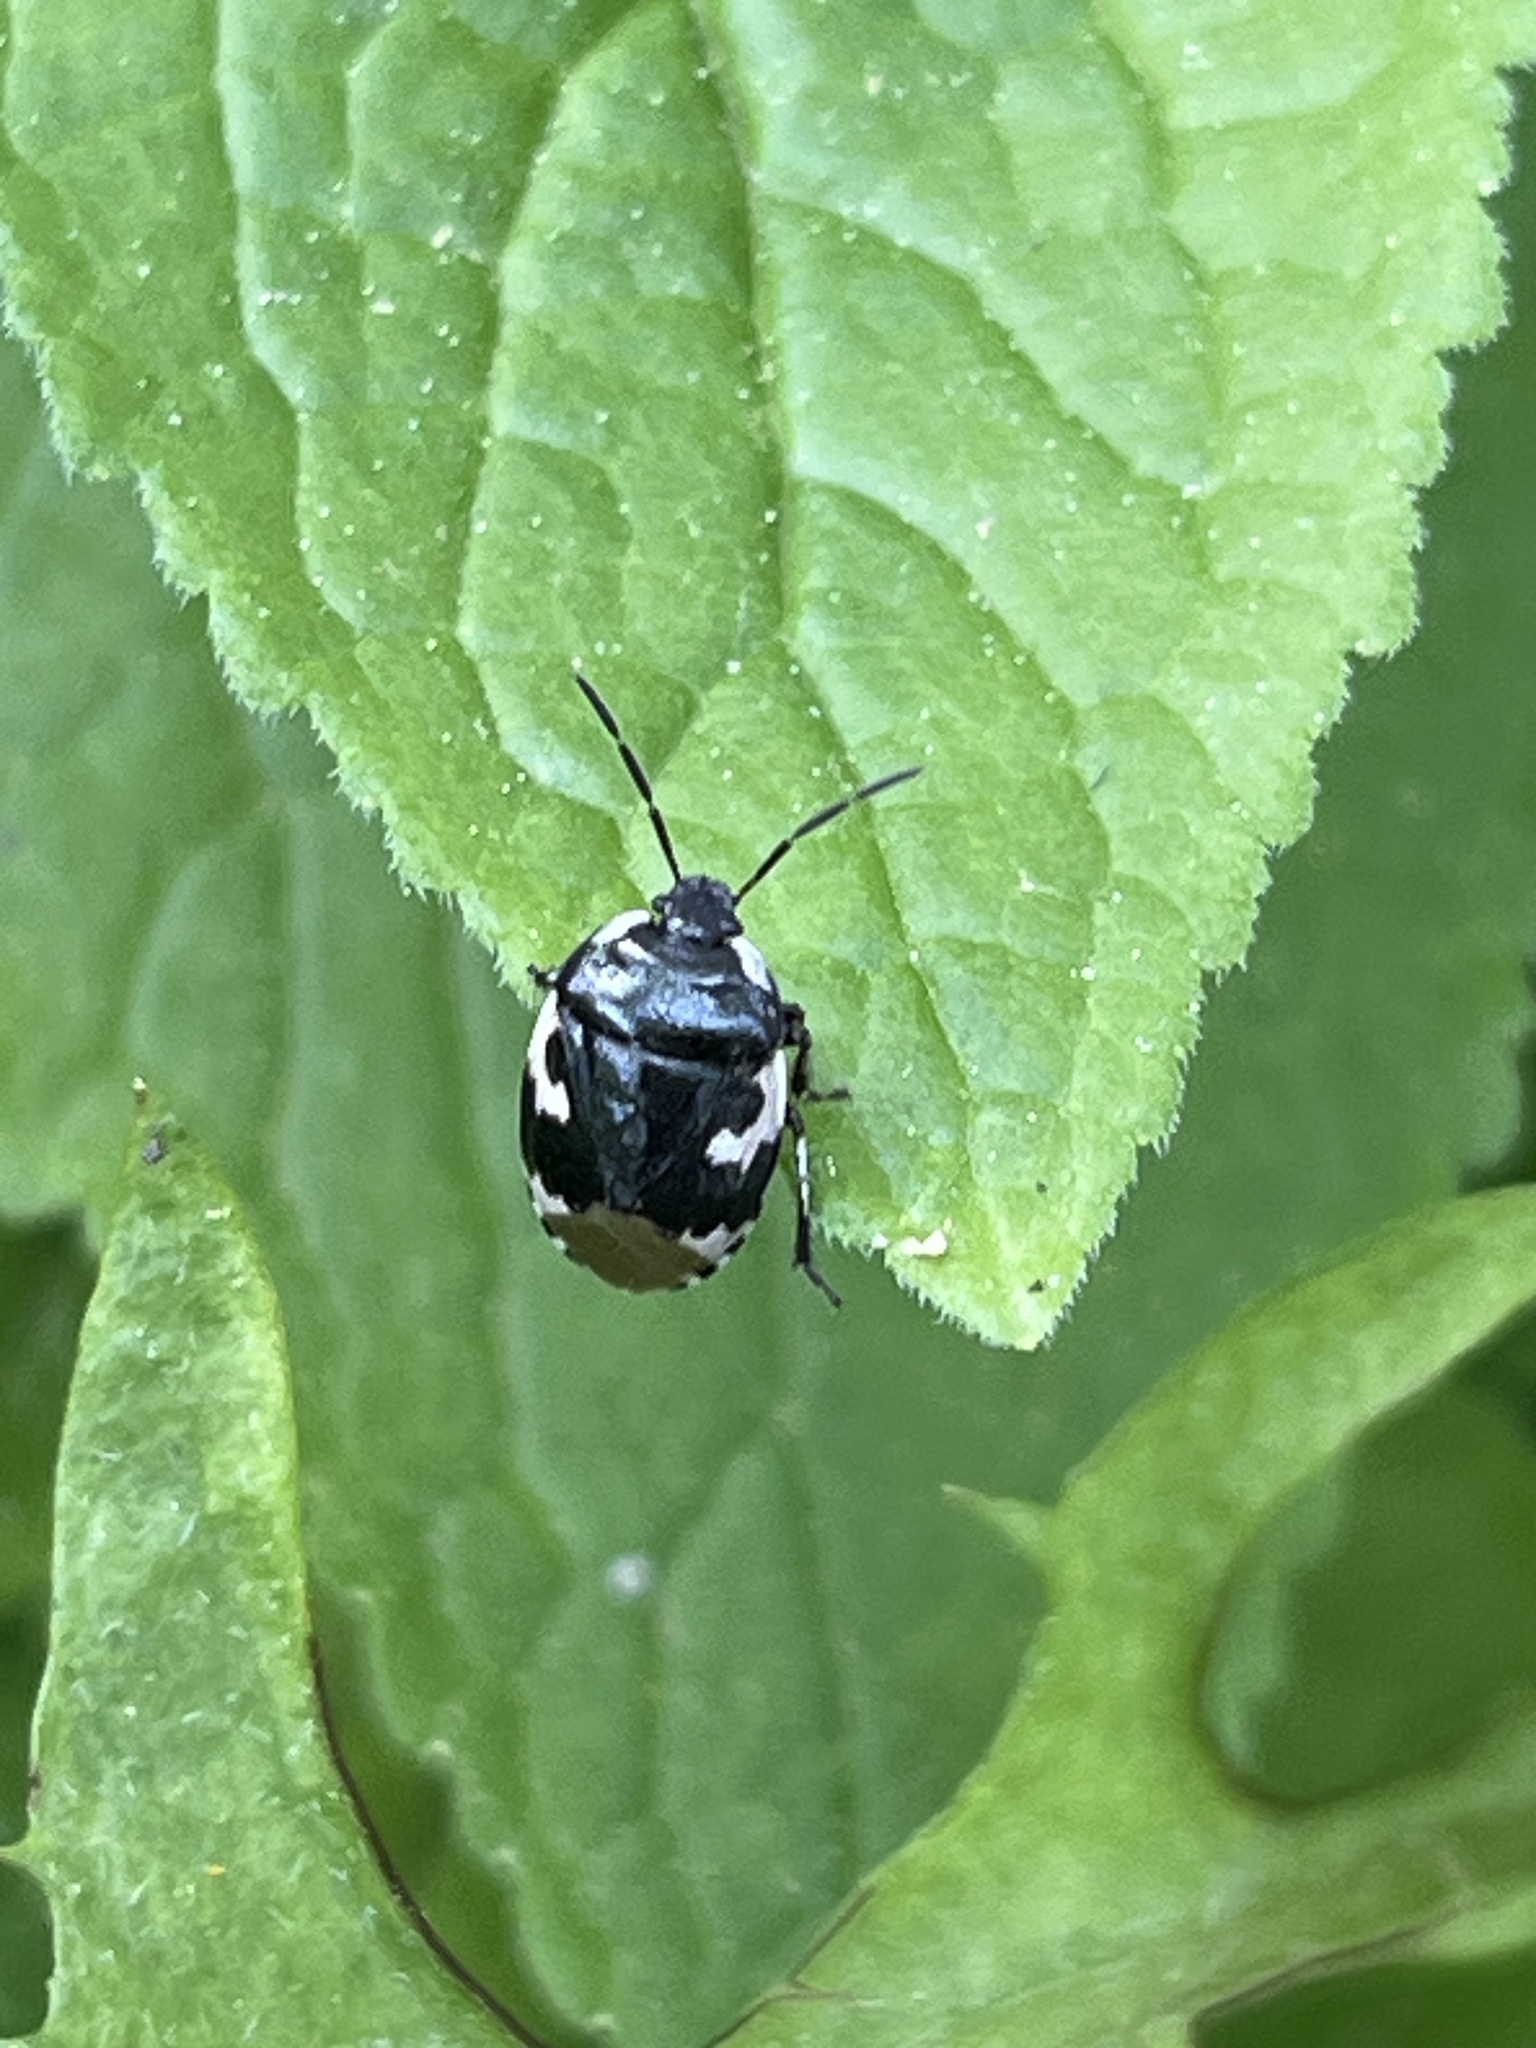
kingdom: Animalia
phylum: Arthropoda
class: Insecta
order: Hemiptera
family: Cydnidae
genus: Tritomegas
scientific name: Tritomegas bicolor
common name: Pied shieldbug
